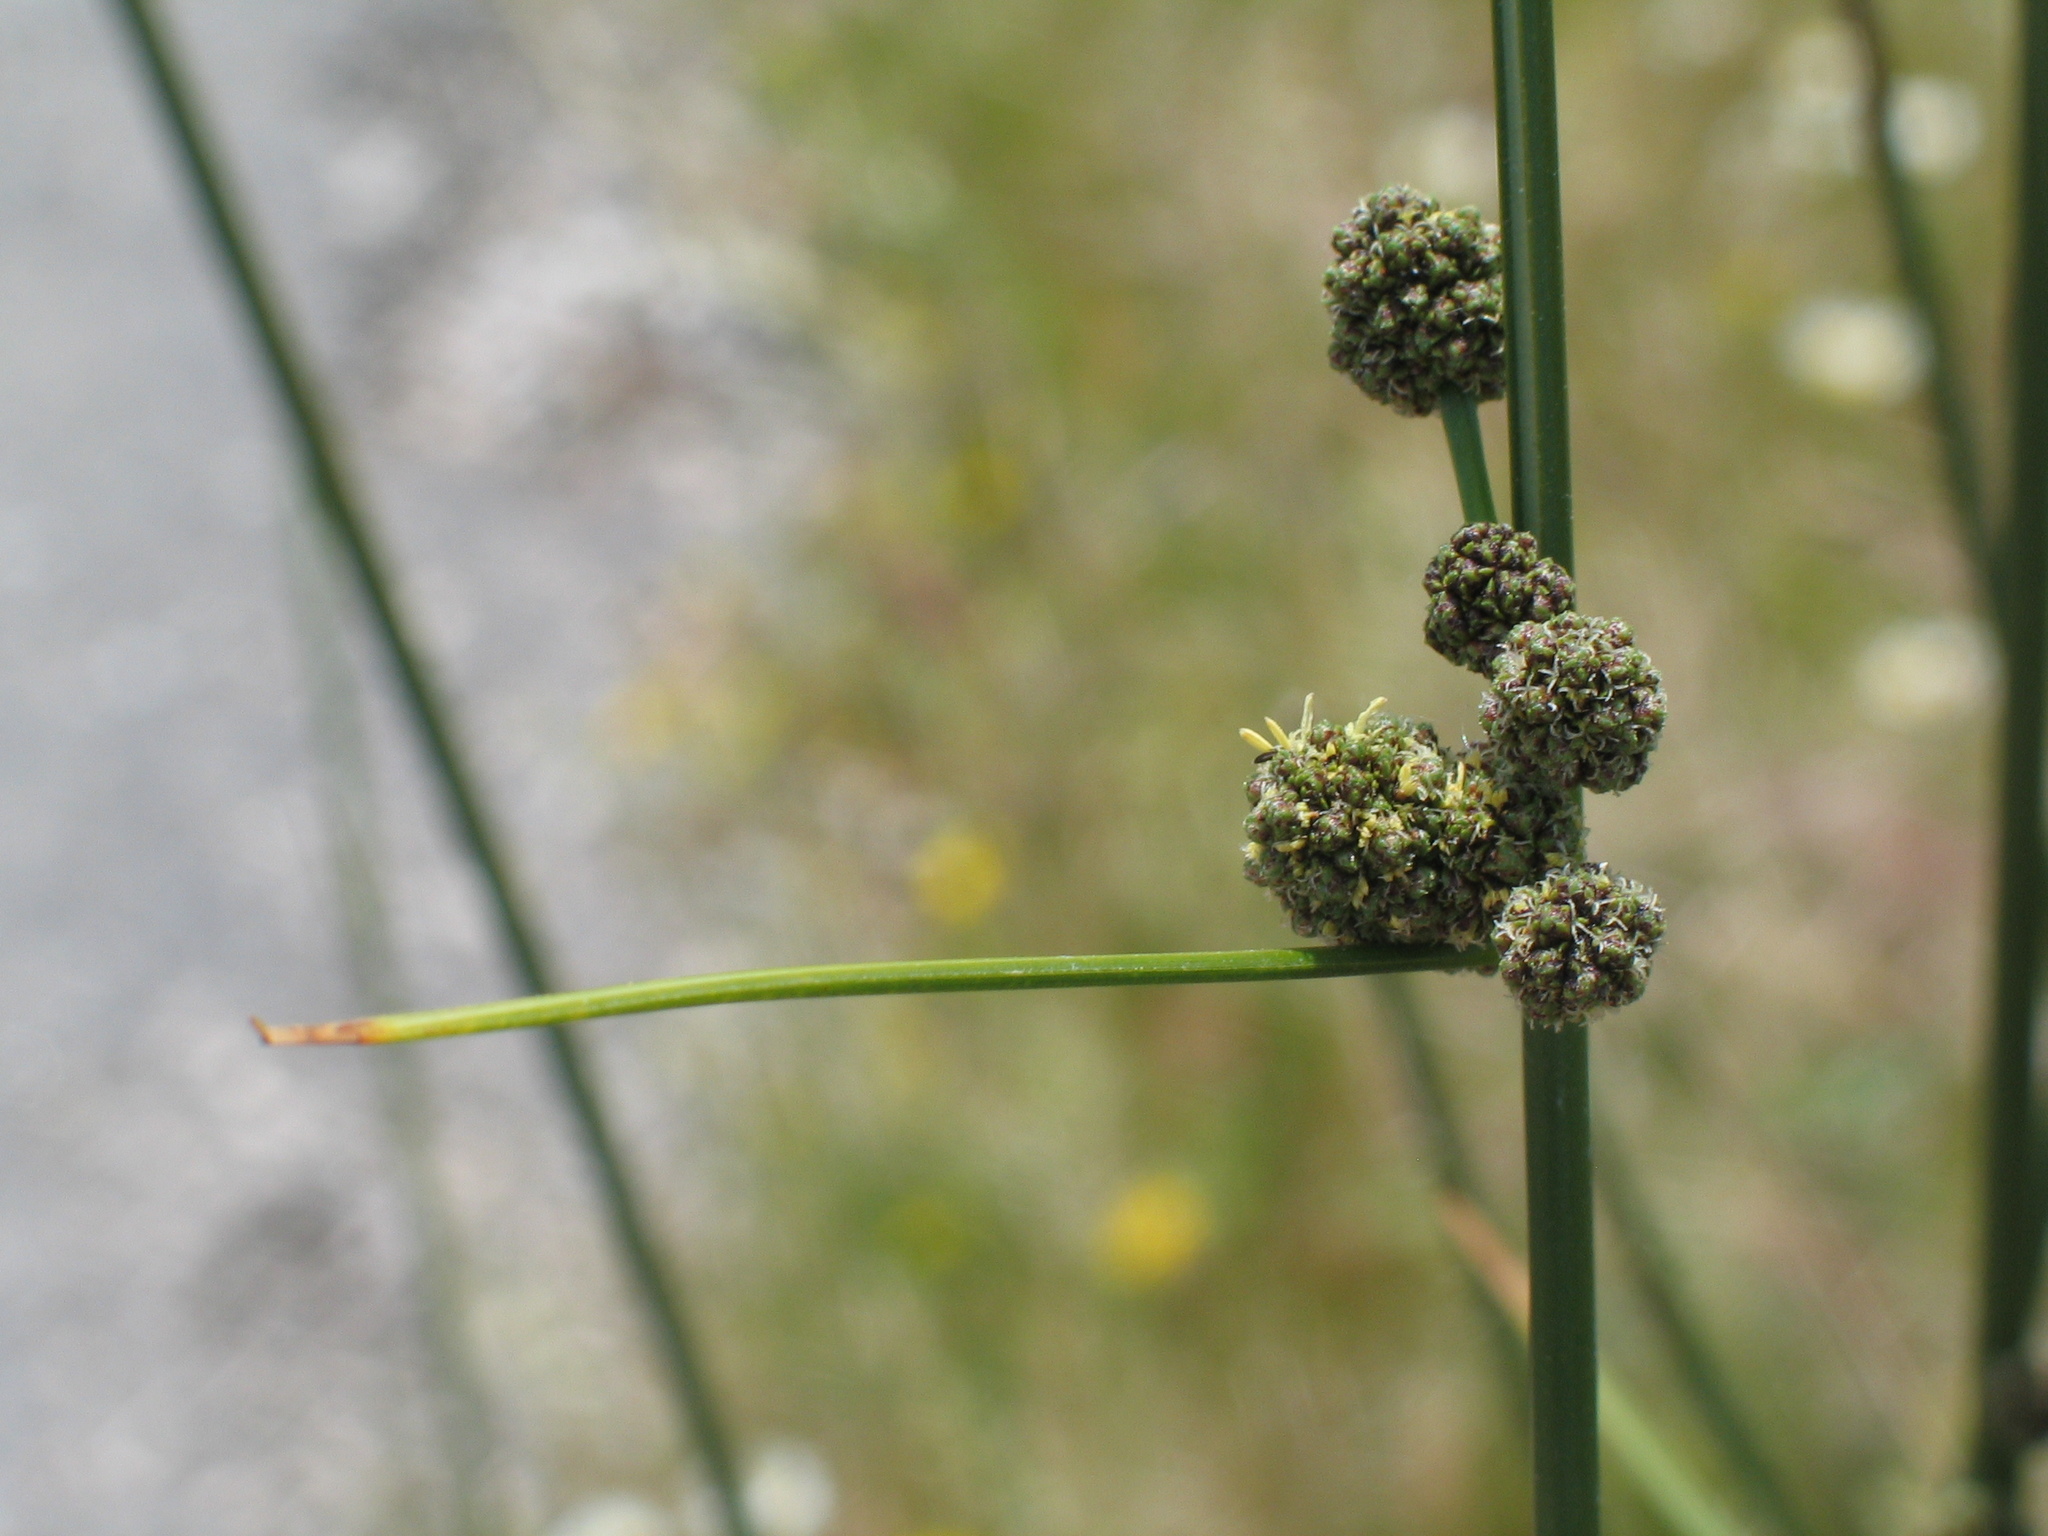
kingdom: Plantae
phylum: Tracheophyta
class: Liliopsida
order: Poales
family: Cyperaceae
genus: Scirpoides
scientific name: Scirpoides holoschoenus
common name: Round-headed club-rush
